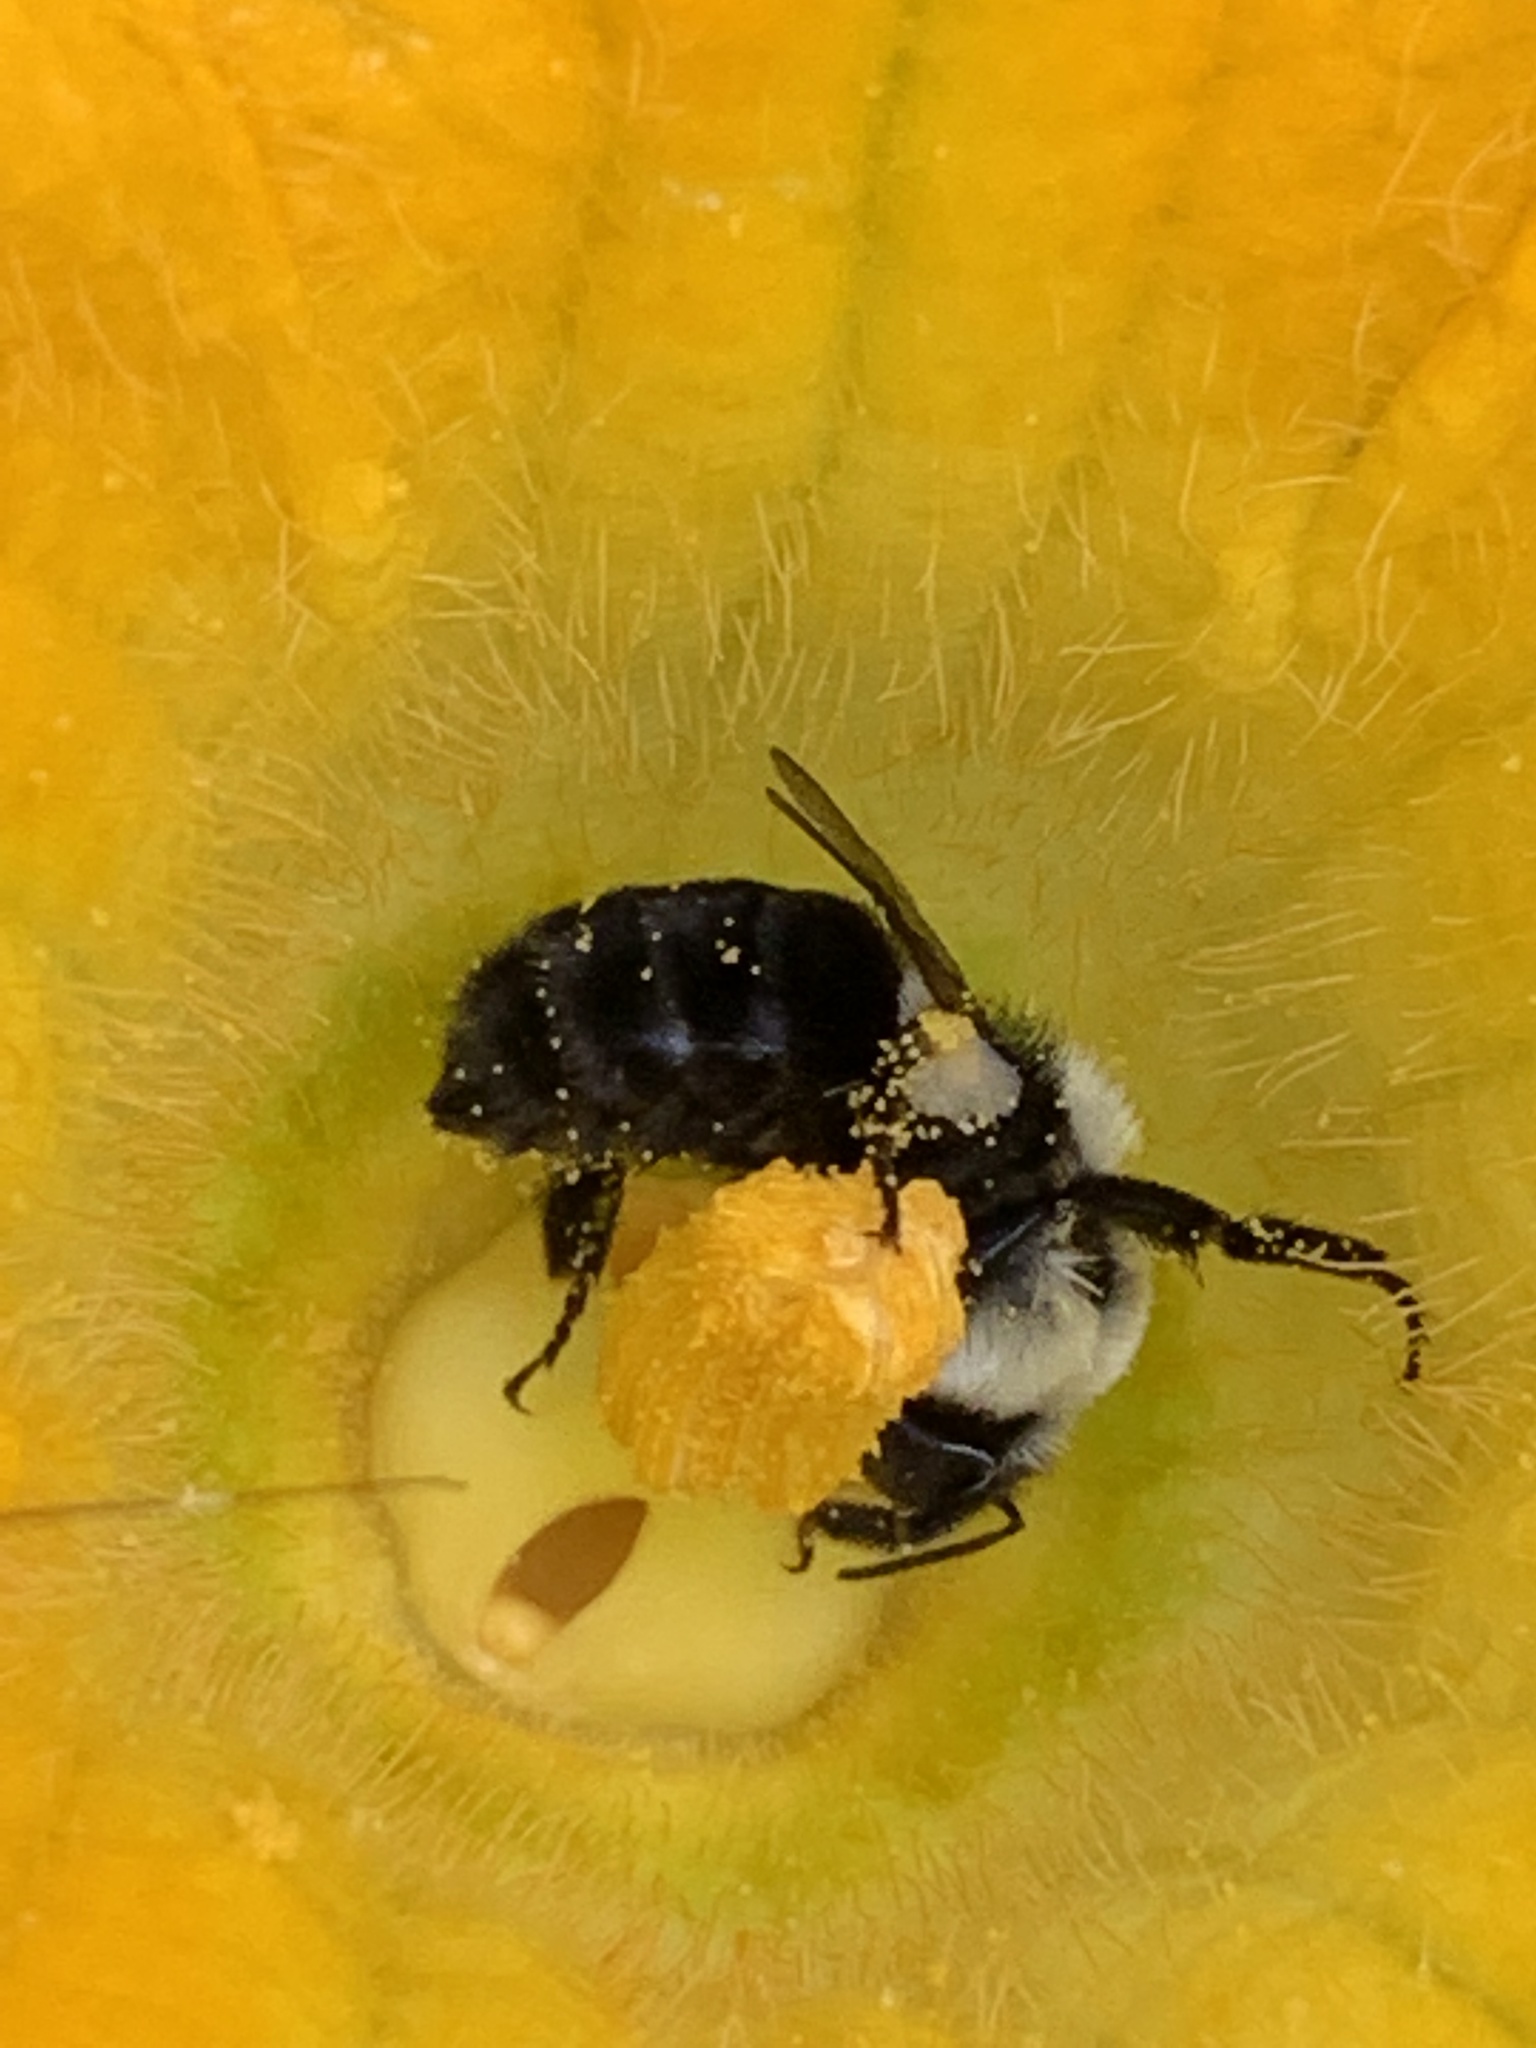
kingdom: Animalia
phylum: Arthropoda
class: Insecta
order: Hymenoptera
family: Apidae
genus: Bombus
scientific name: Bombus impatiens
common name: Common eastern bumble bee
